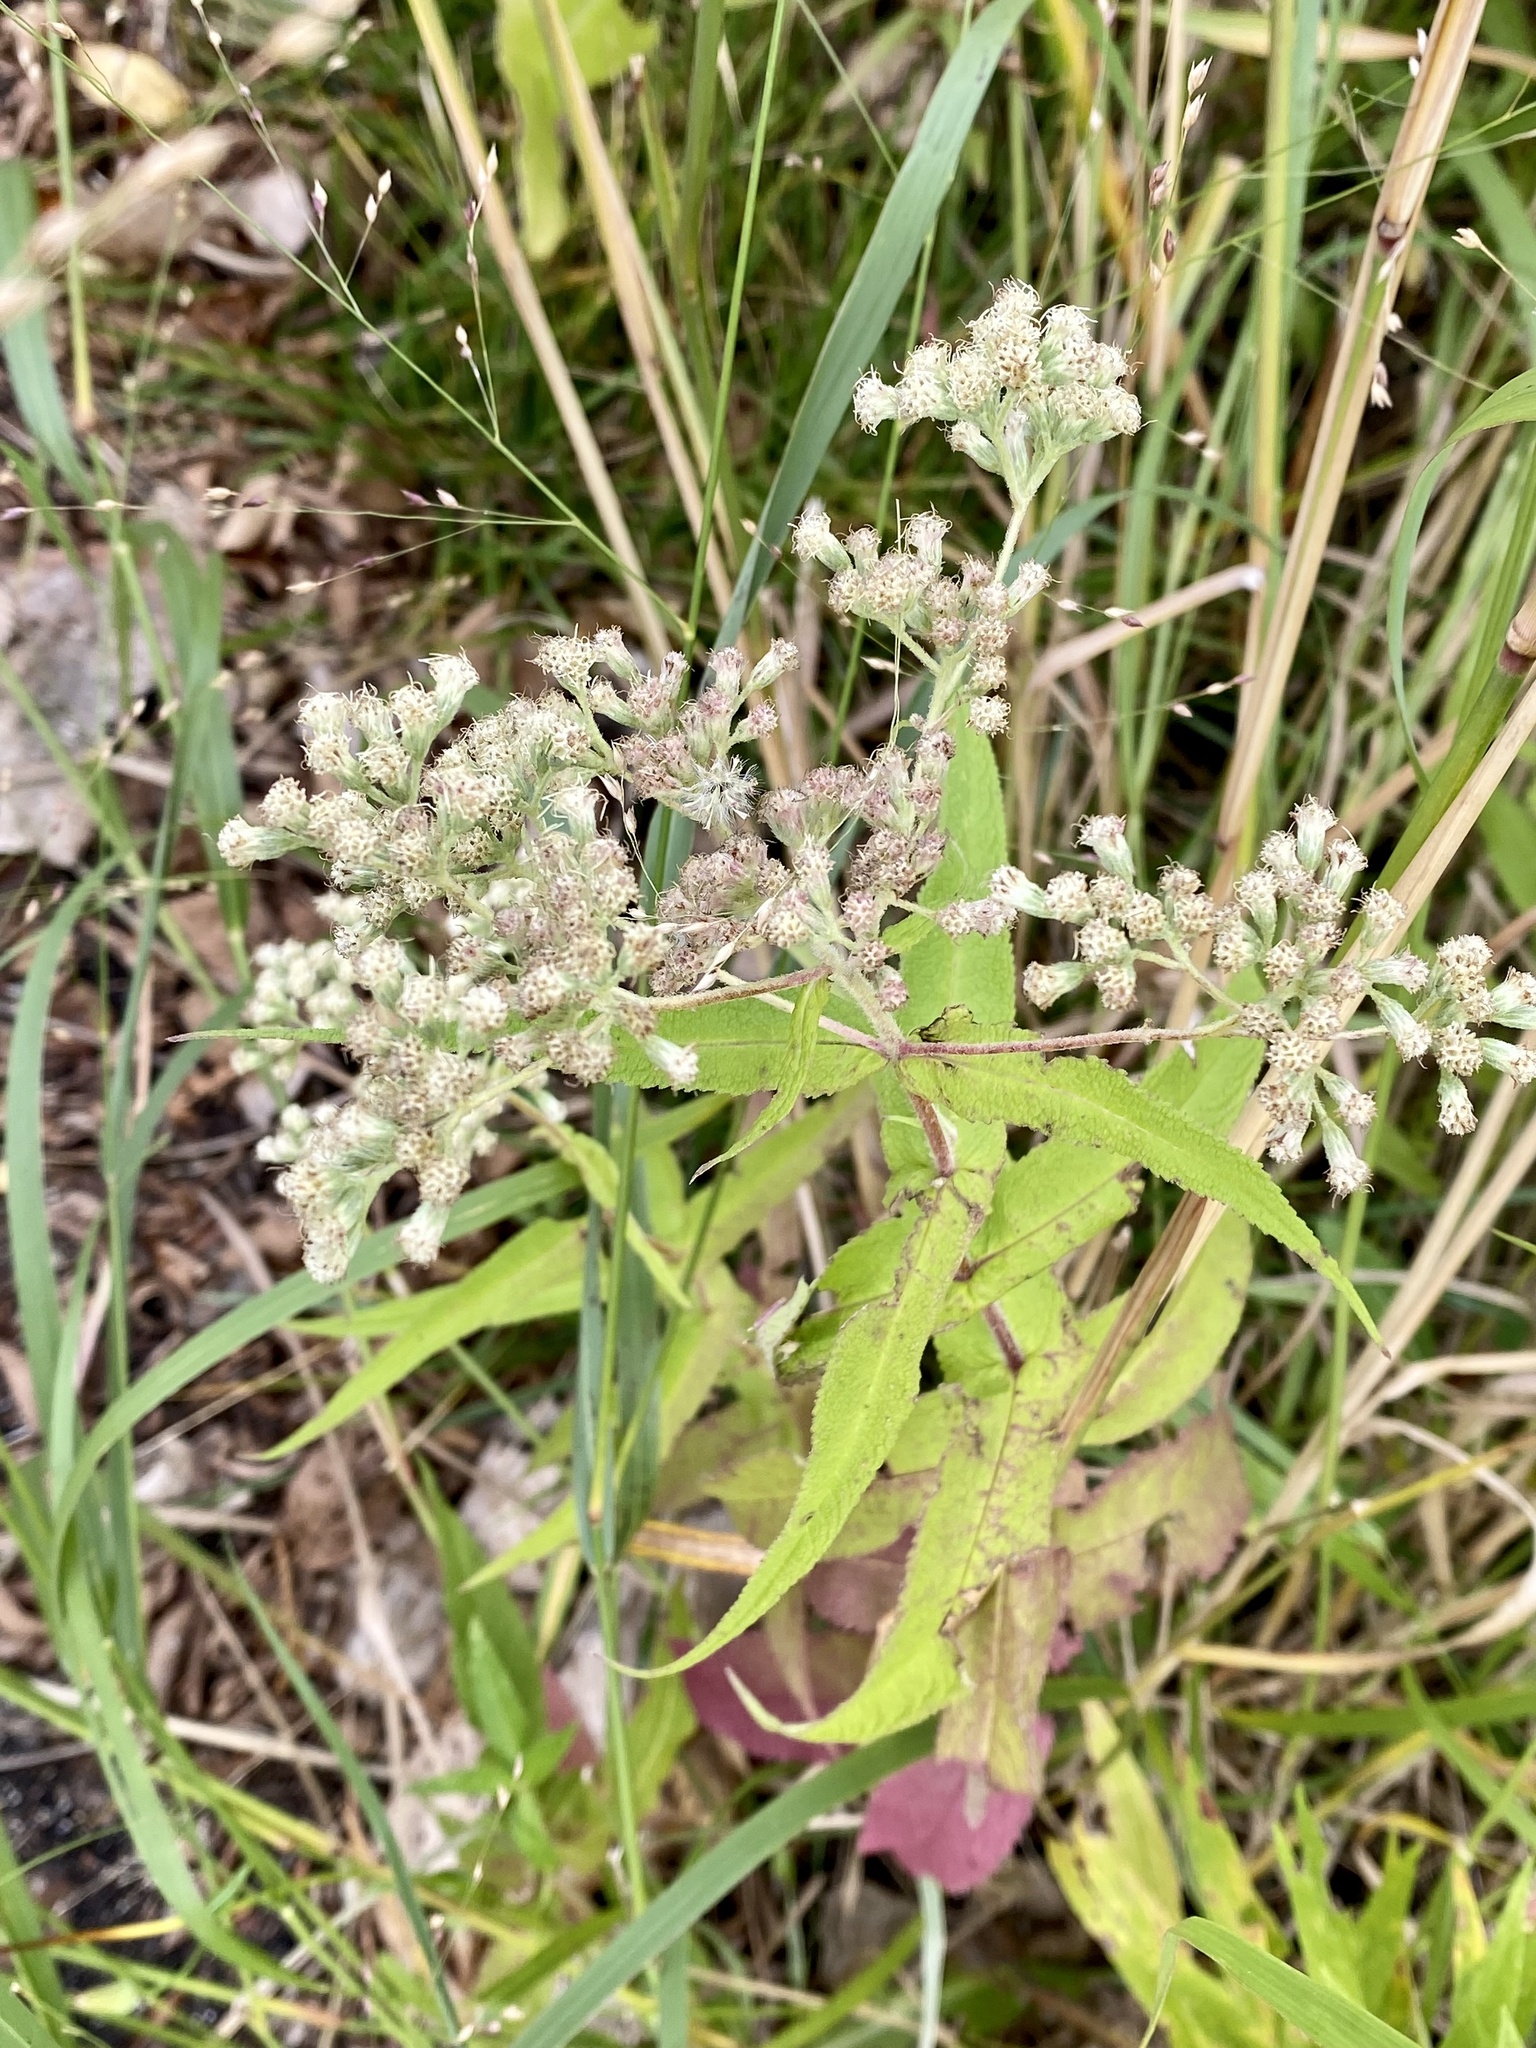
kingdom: Plantae
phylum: Tracheophyta
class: Magnoliopsida
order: Asterales
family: Asteraceae
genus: Eupatorium
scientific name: Eupatorium perfoliatum
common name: Boneset
